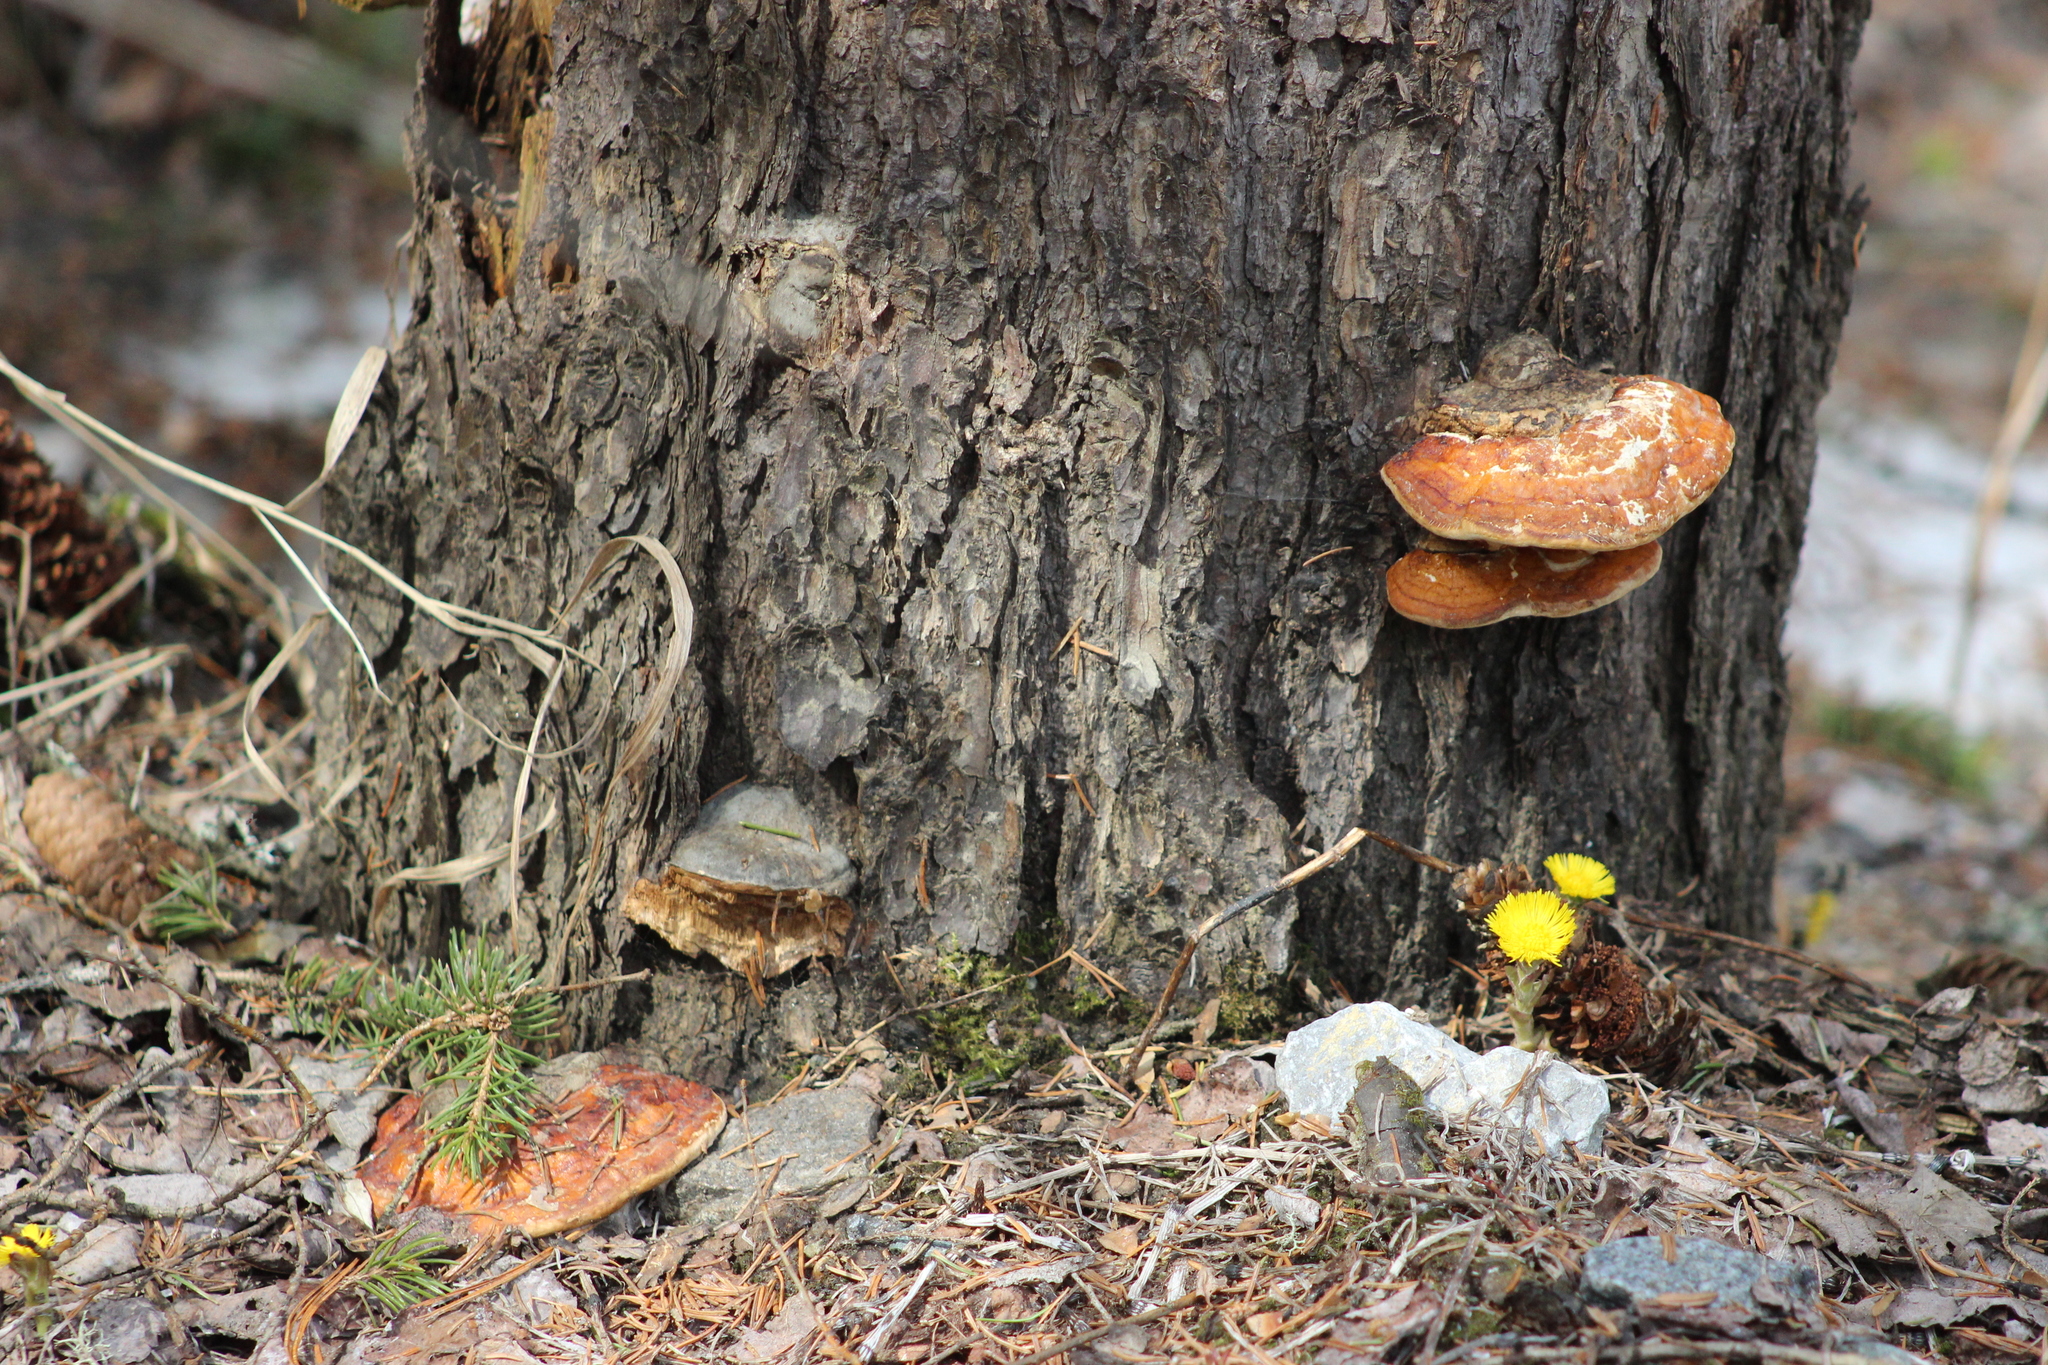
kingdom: Fungi
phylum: Basidiomycota
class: Agaricomycetes
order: Polyporales
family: Fomitopsidaceae
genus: Fomitopsis
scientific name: Fomitopsis pinicola
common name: Red-belted bracket
